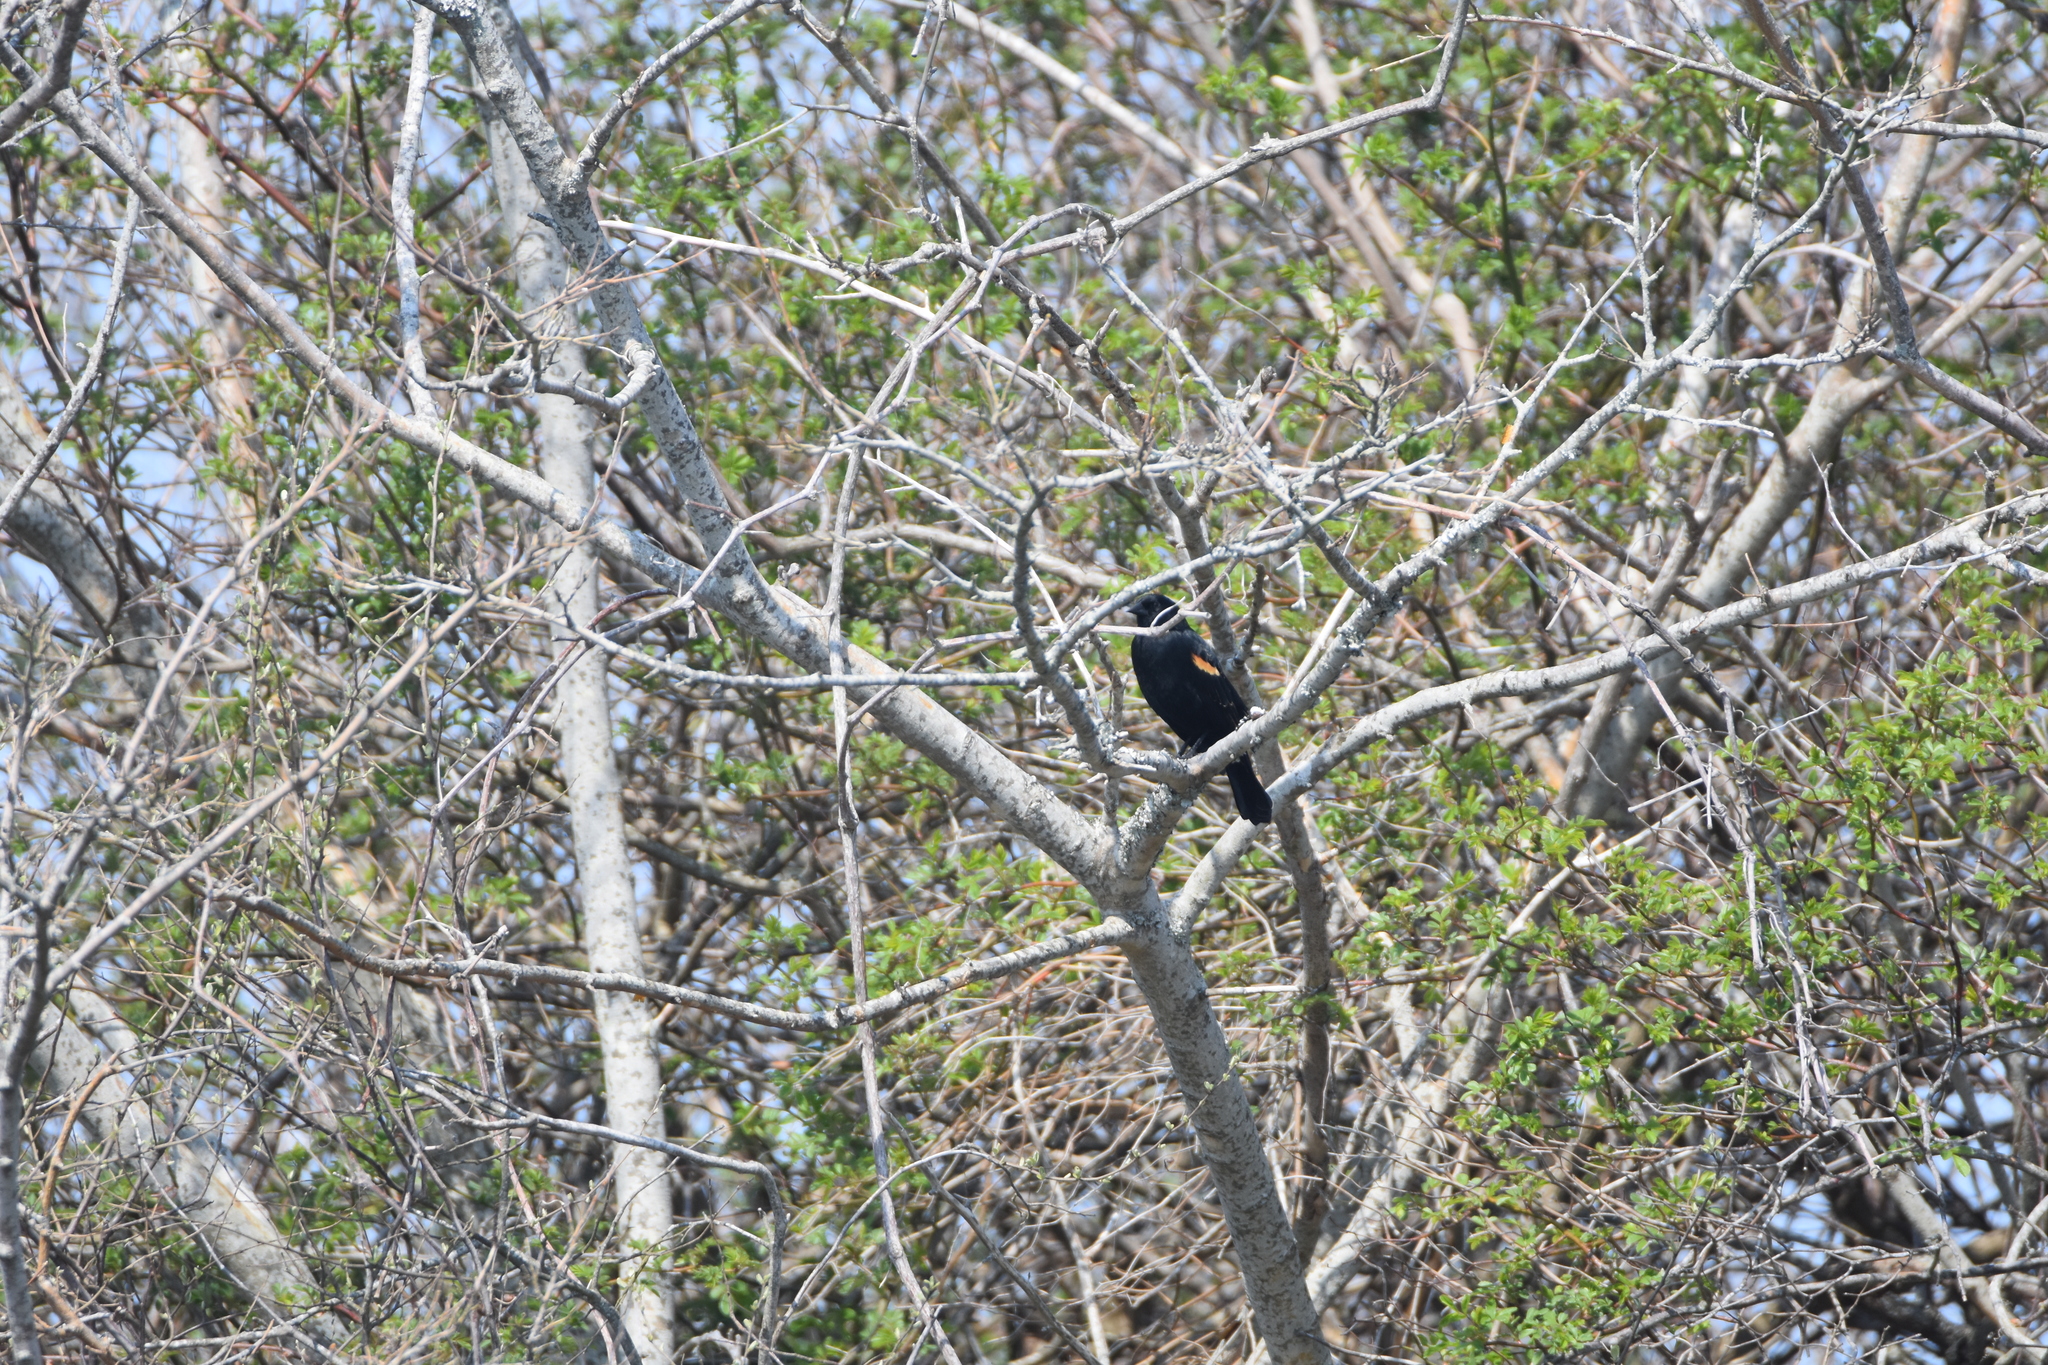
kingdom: Animalia
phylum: Chordata
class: Aves
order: Passeriformes
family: Icteridae
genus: Agelaius
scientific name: Agelaius phoeniceus
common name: Red-winged blackbird
